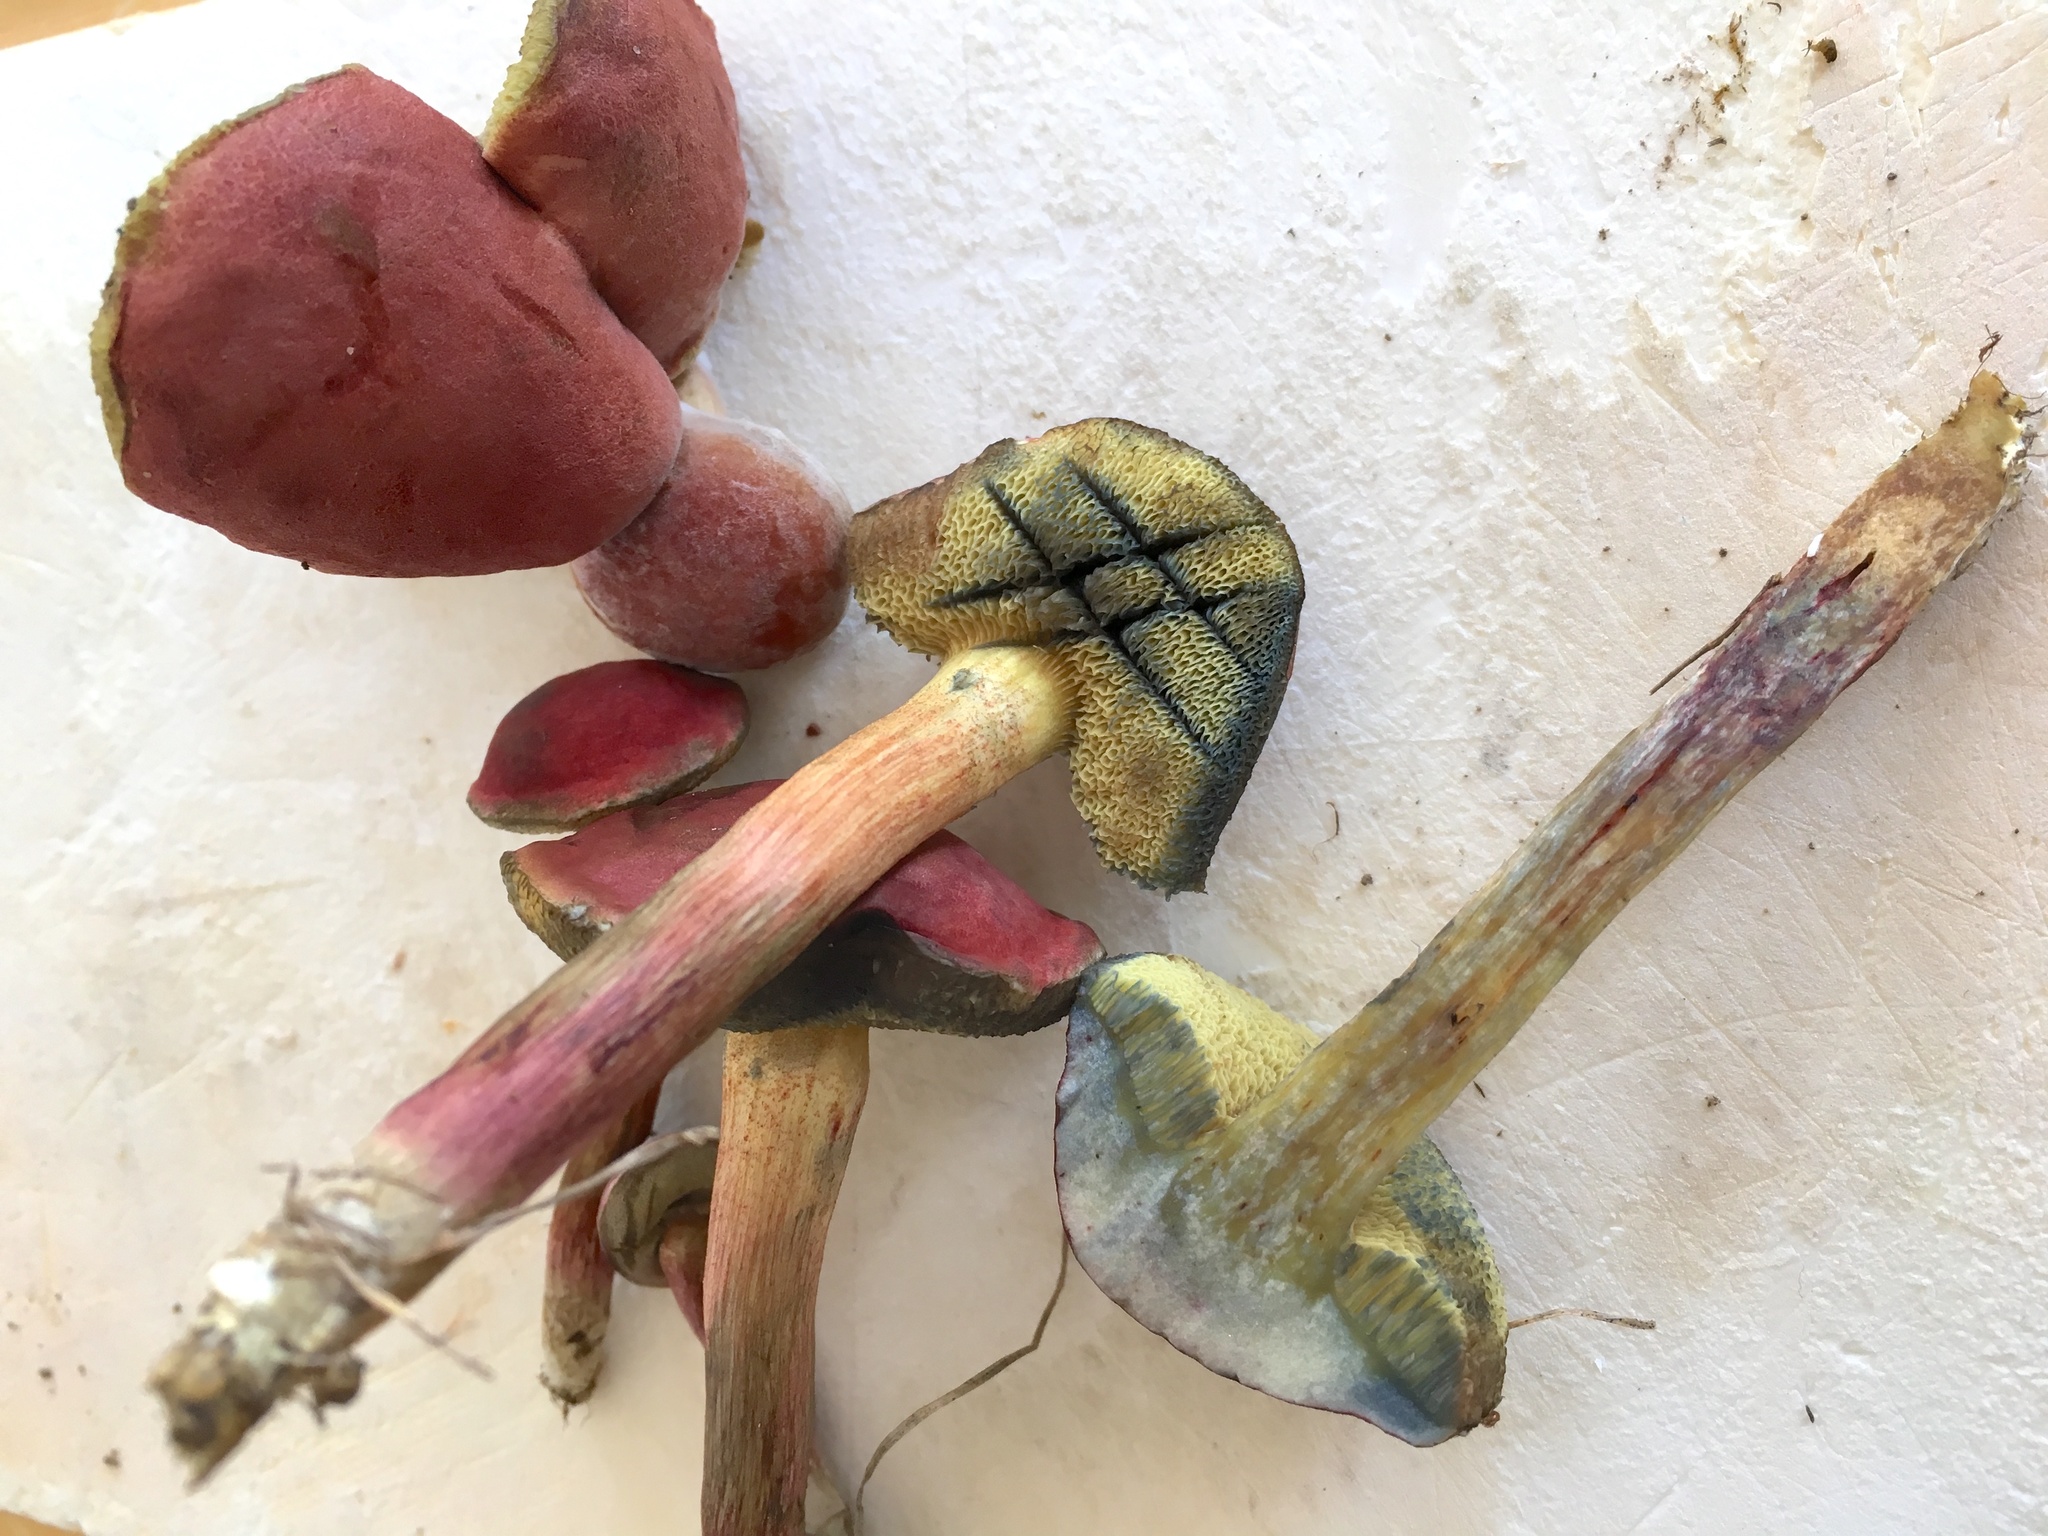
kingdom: Fungi
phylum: Basidiomycota
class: Agaricomycetes
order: Boletales
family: Boletaceae
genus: Hortiboletus
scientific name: Hortiboletus campestris
